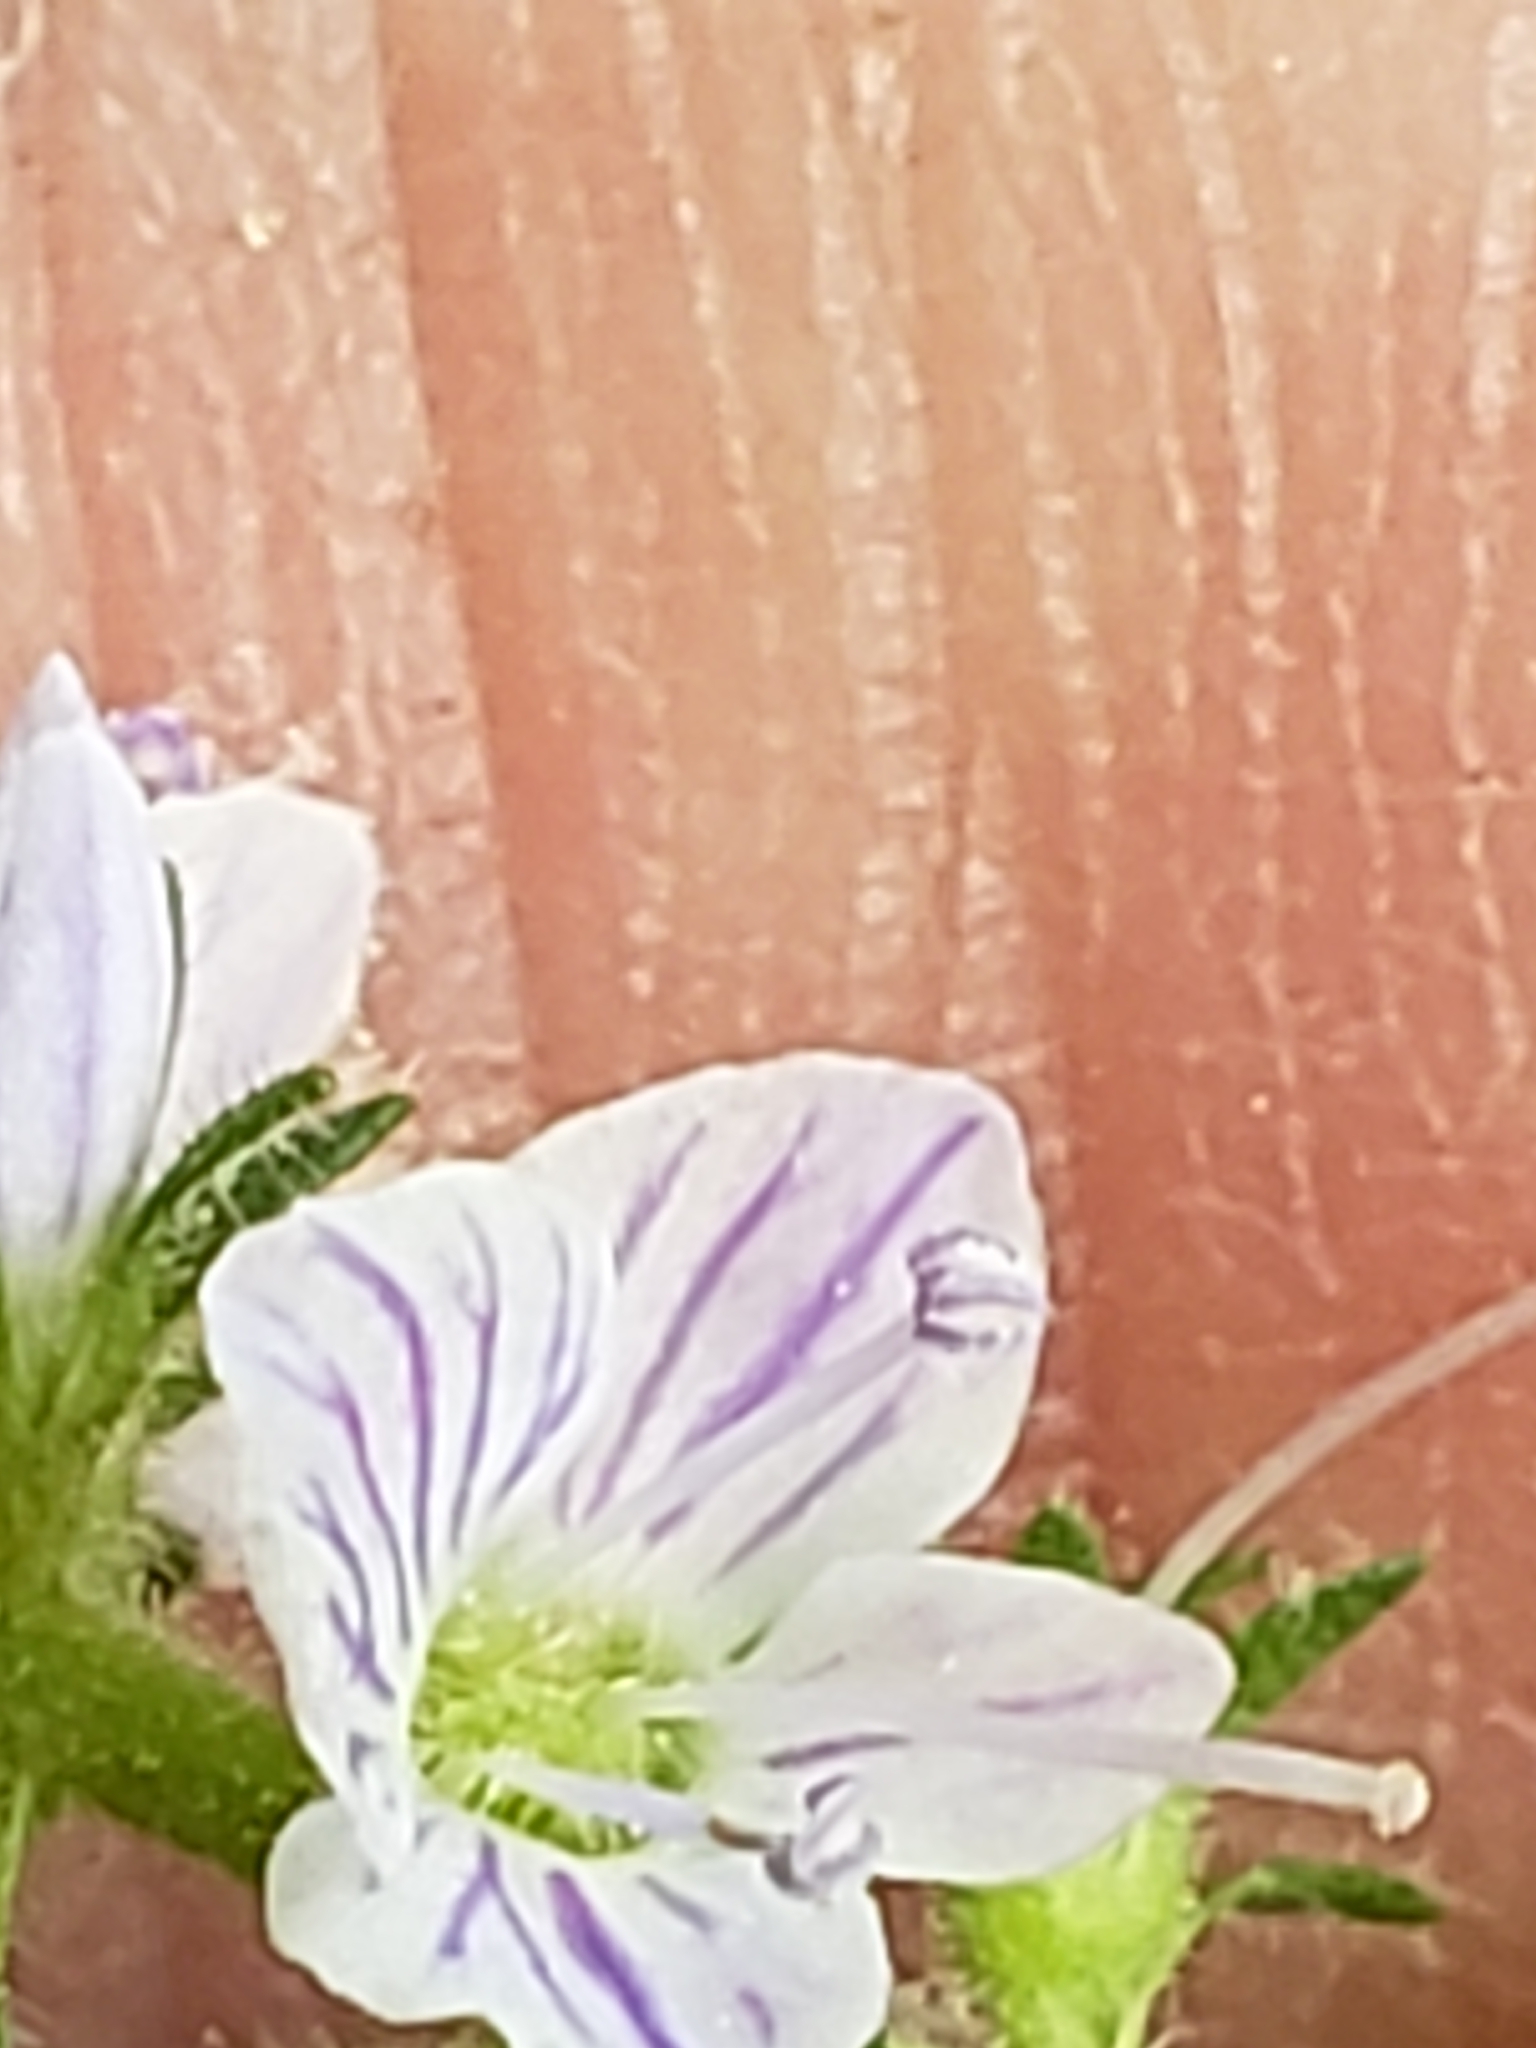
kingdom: Plantae
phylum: Tracheophyta
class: Magnoliopsida
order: Lamiales
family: Plantaginaceae
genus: Veronica
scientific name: Veronica officinalis
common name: Common speedwell
